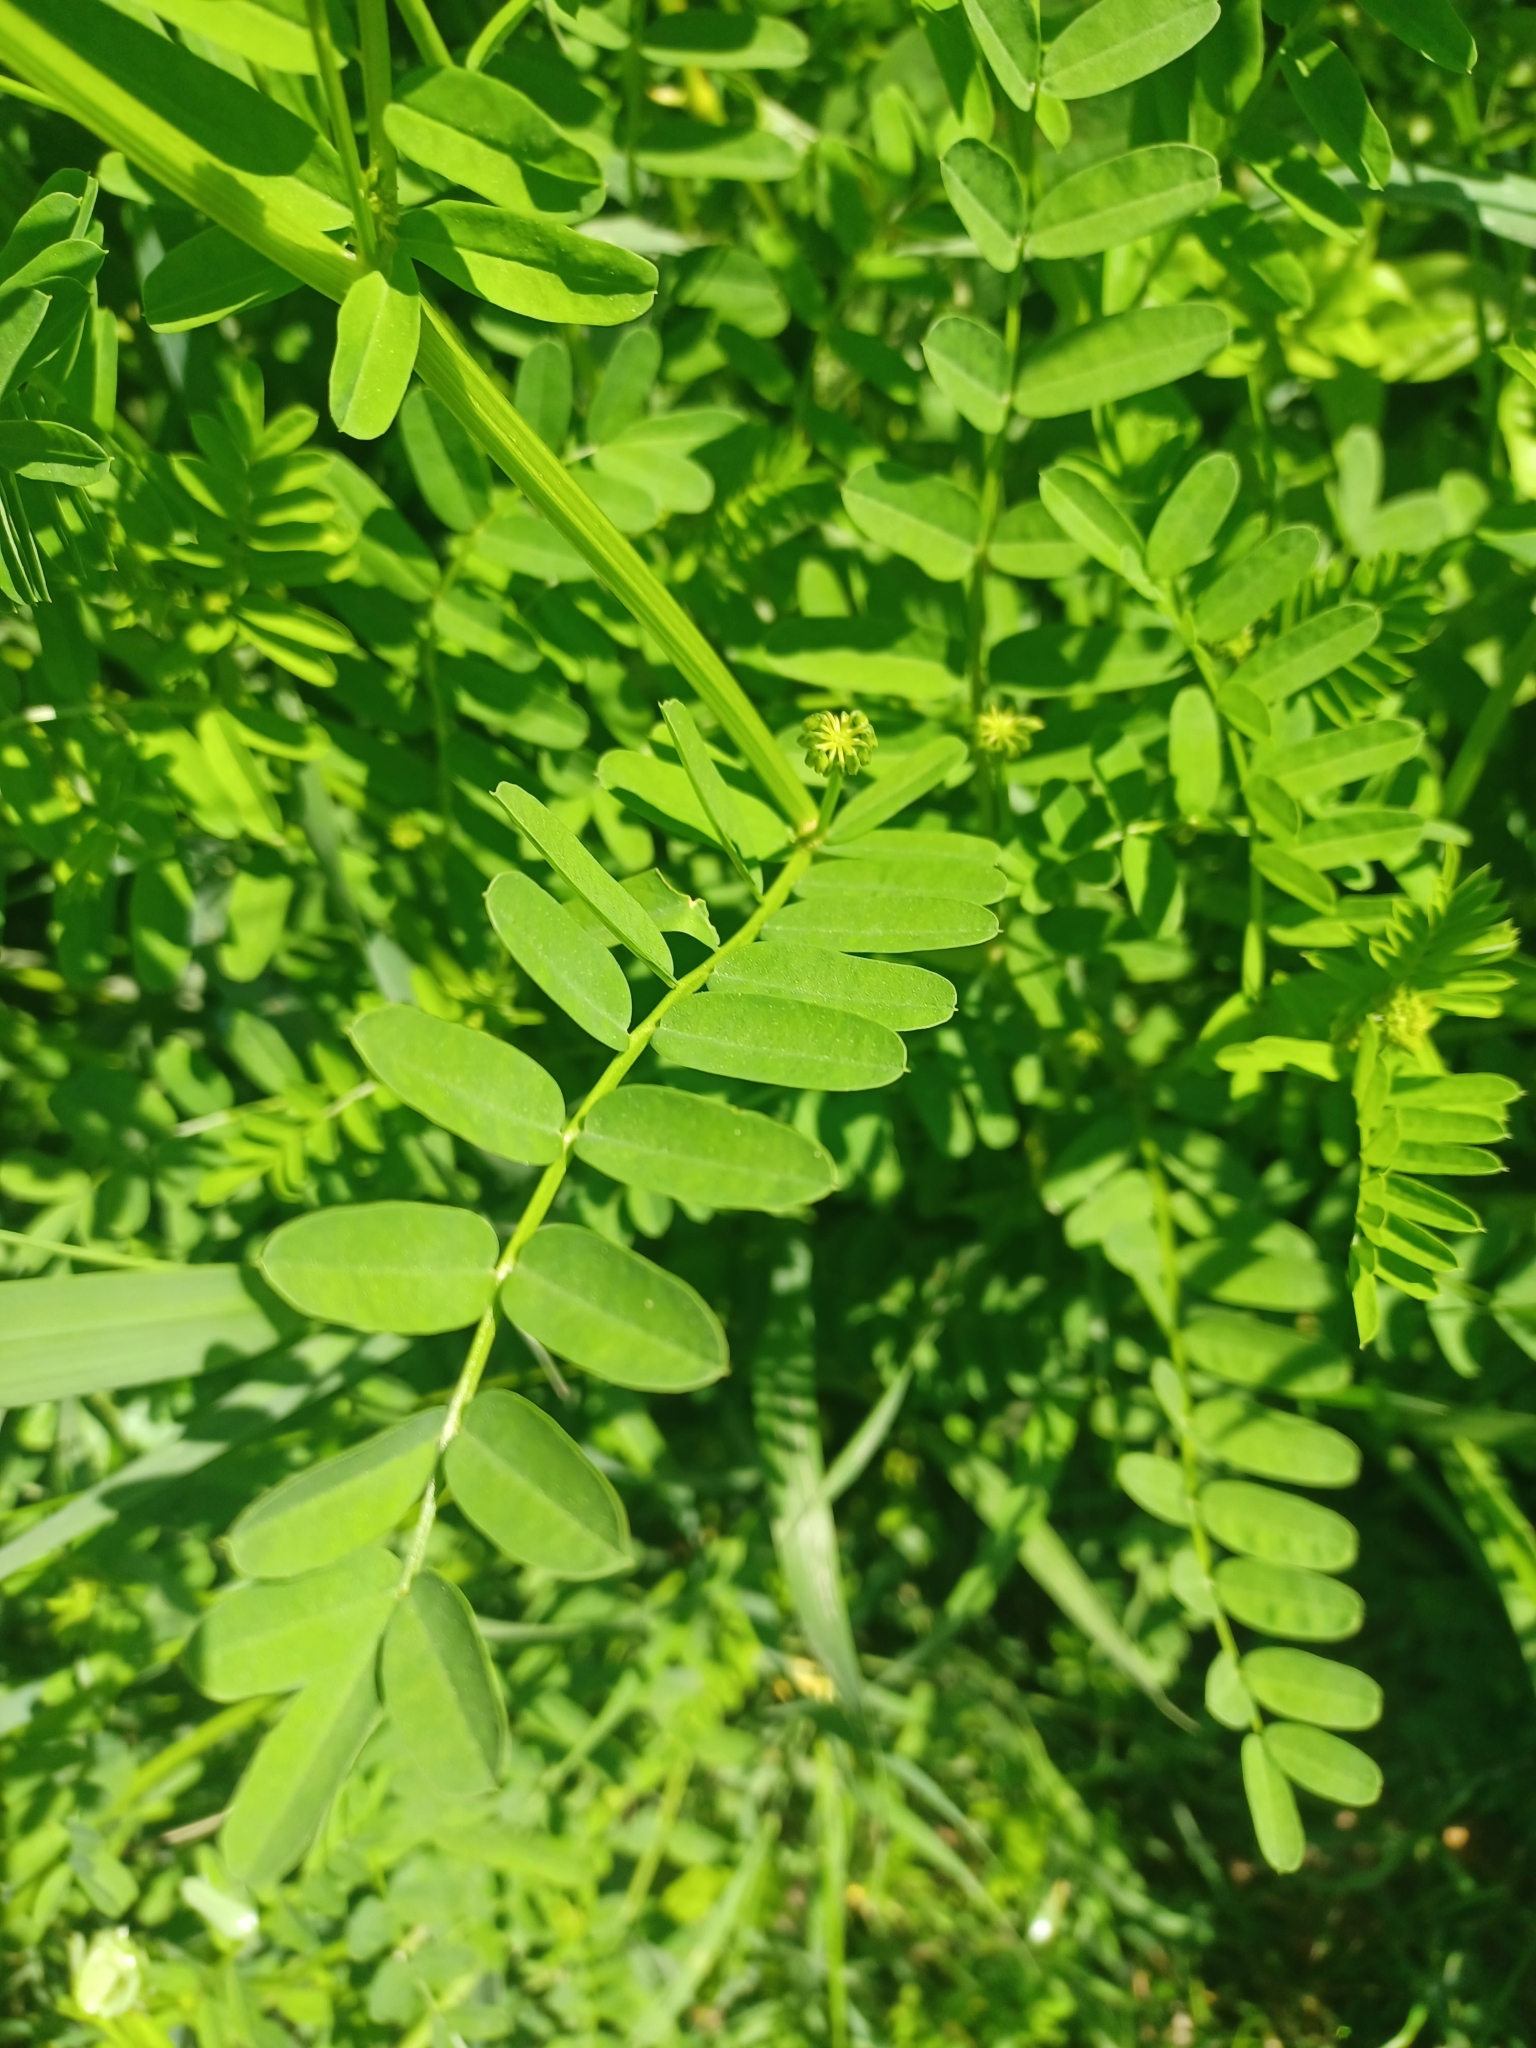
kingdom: Plantae
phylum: Tracheophyta
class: Magnoliopsida
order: Fabales
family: Fabaceae
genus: Coronilla
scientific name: Coronilla varia
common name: Crownvetch
